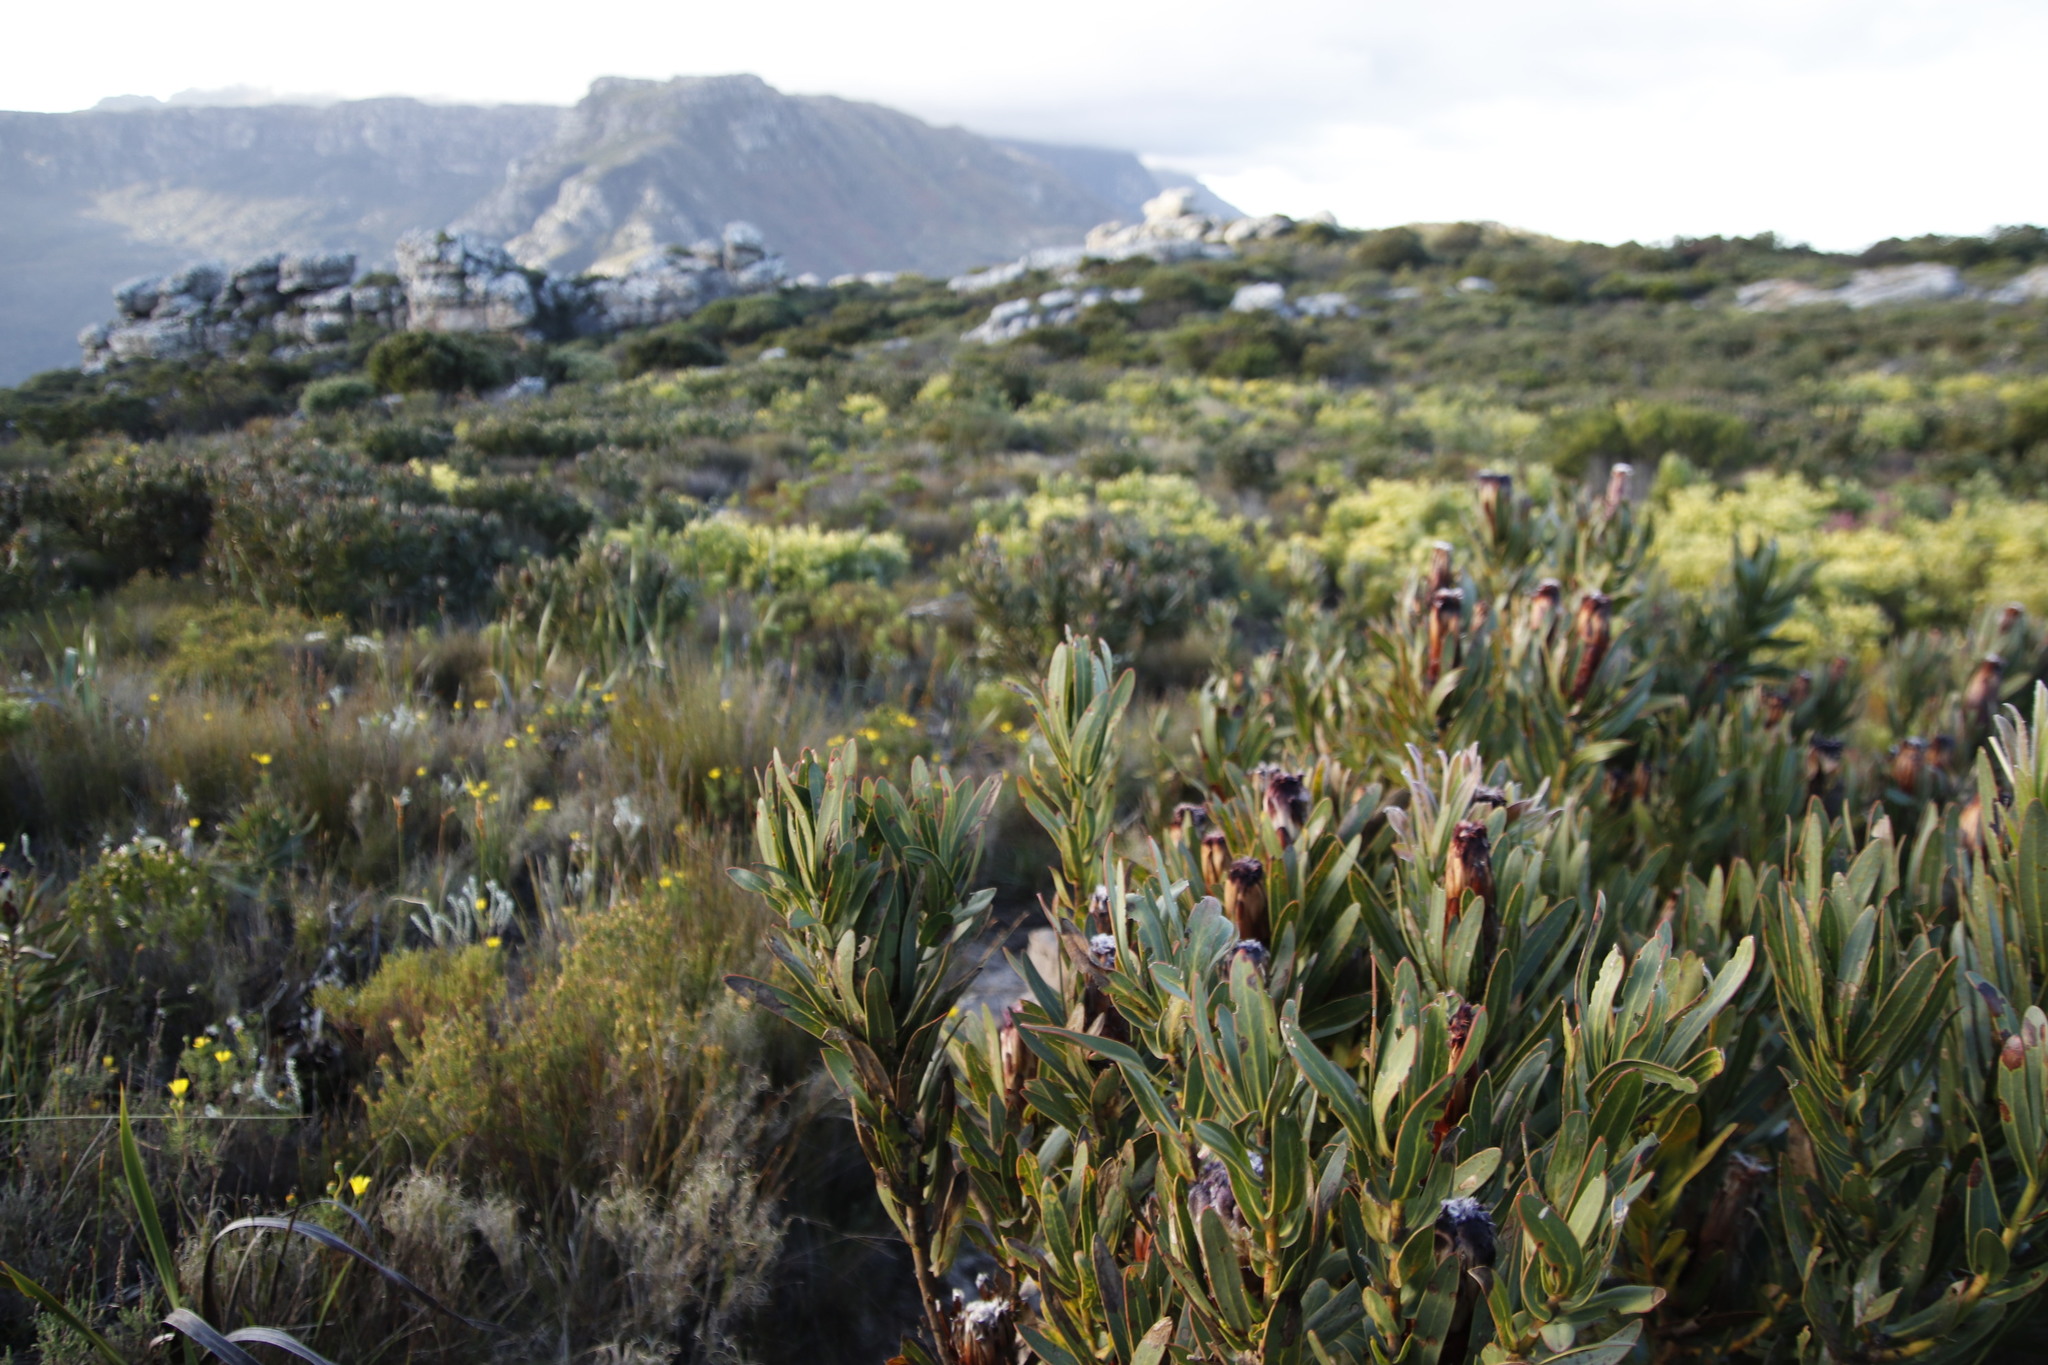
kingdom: Plantae
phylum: Tracheophyta
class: Magnoliopsida
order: Proteales
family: Proteaceae
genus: Protea
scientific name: Protea lepidocarpodendron
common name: Black-bearded protea
